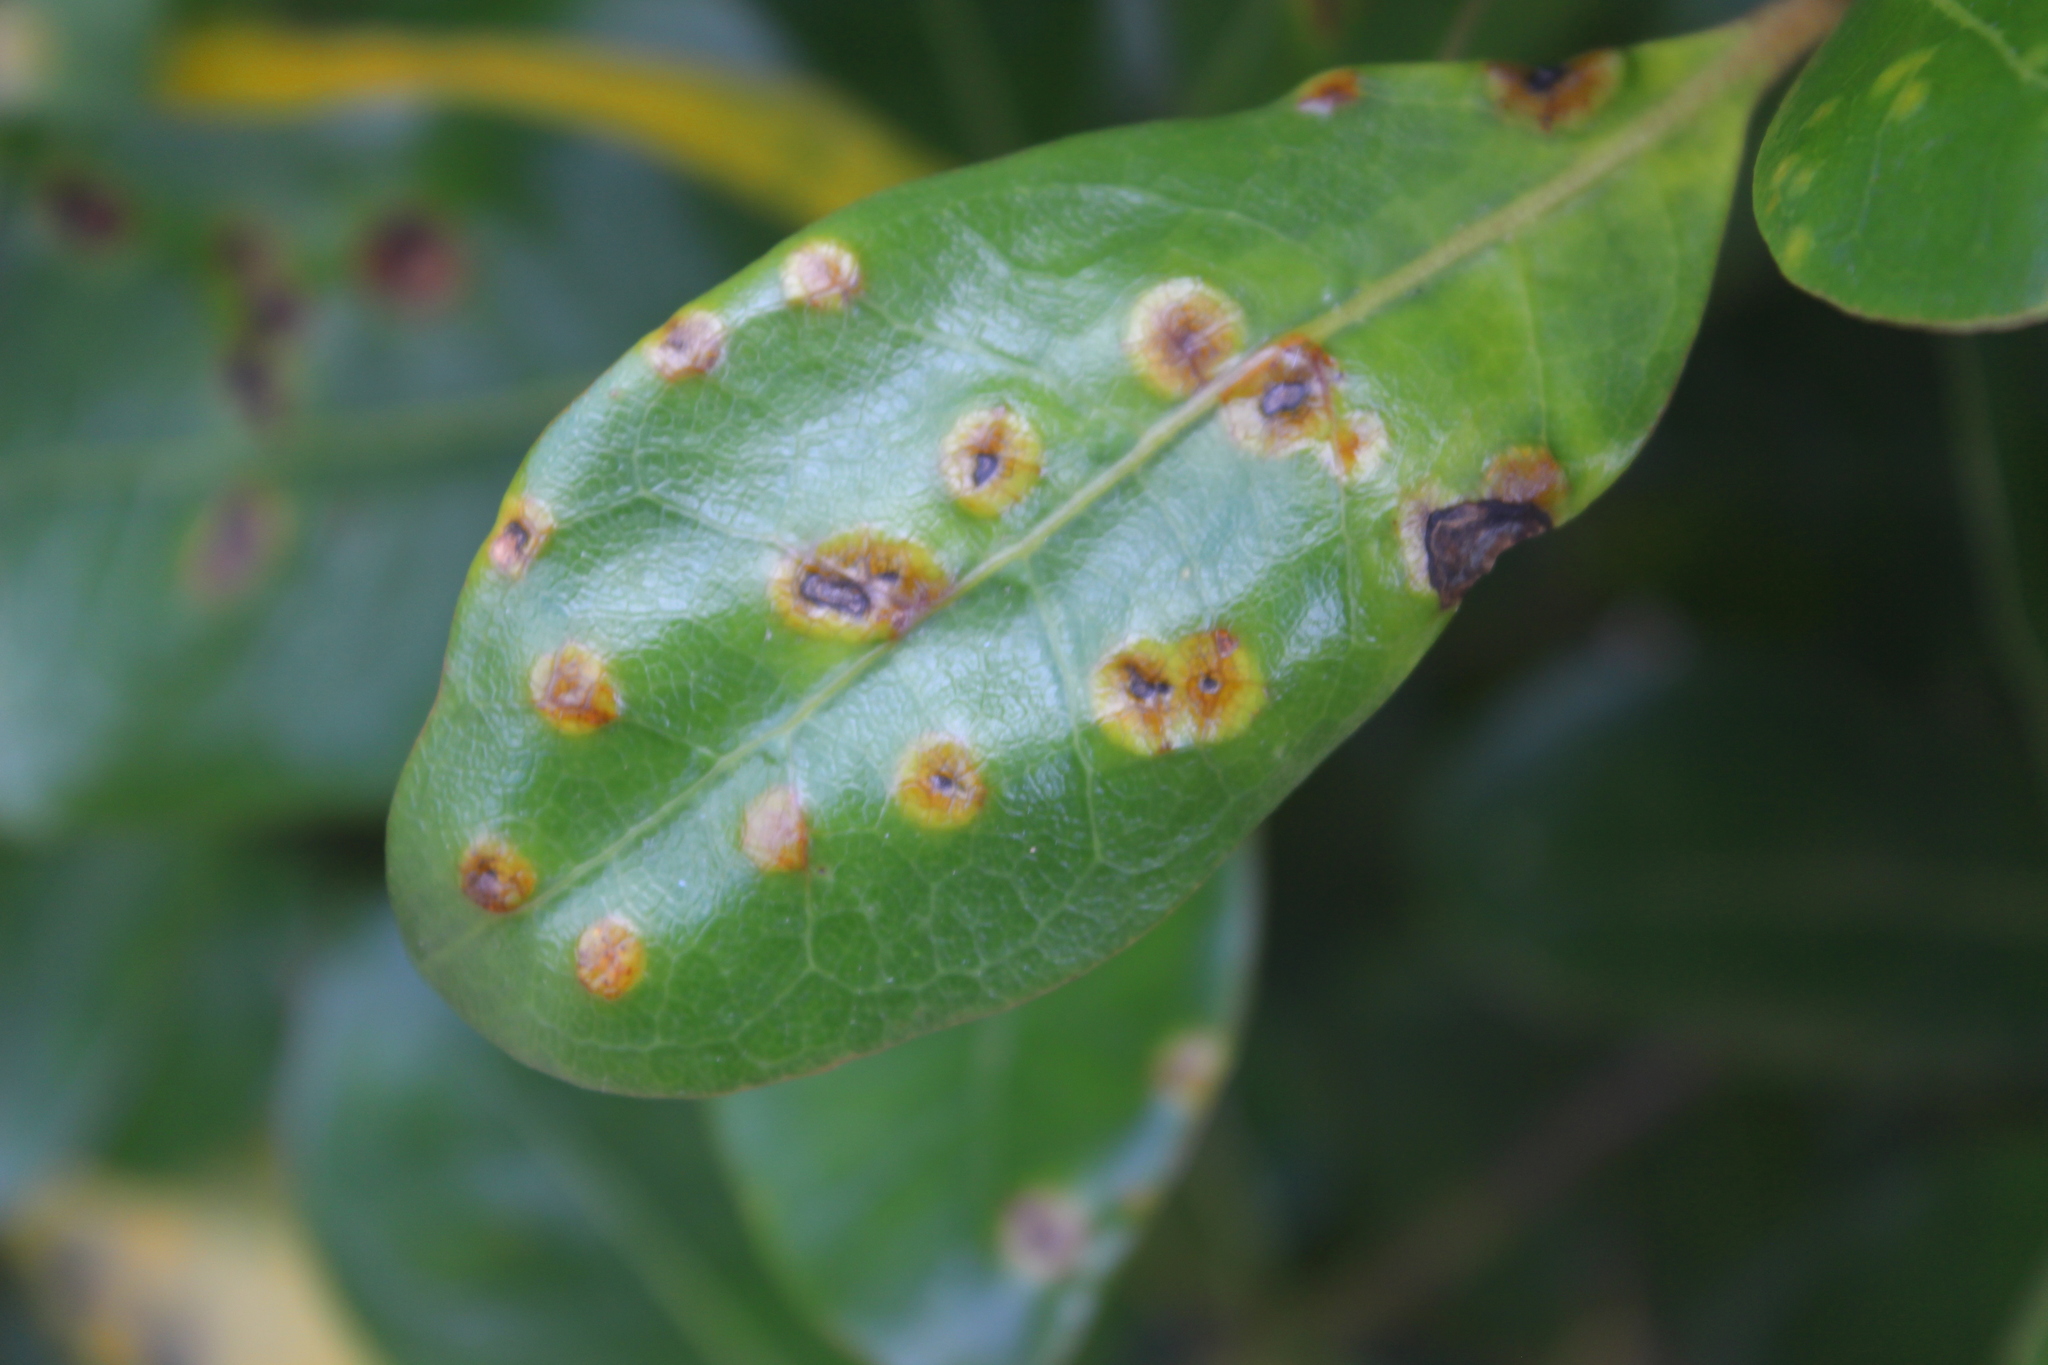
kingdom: Fungi
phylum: Basidiomycota
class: Pucciniomycetes
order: Pucciniales
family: Pucciniaceae
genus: Puccinia
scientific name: Puccinia coprosmae
